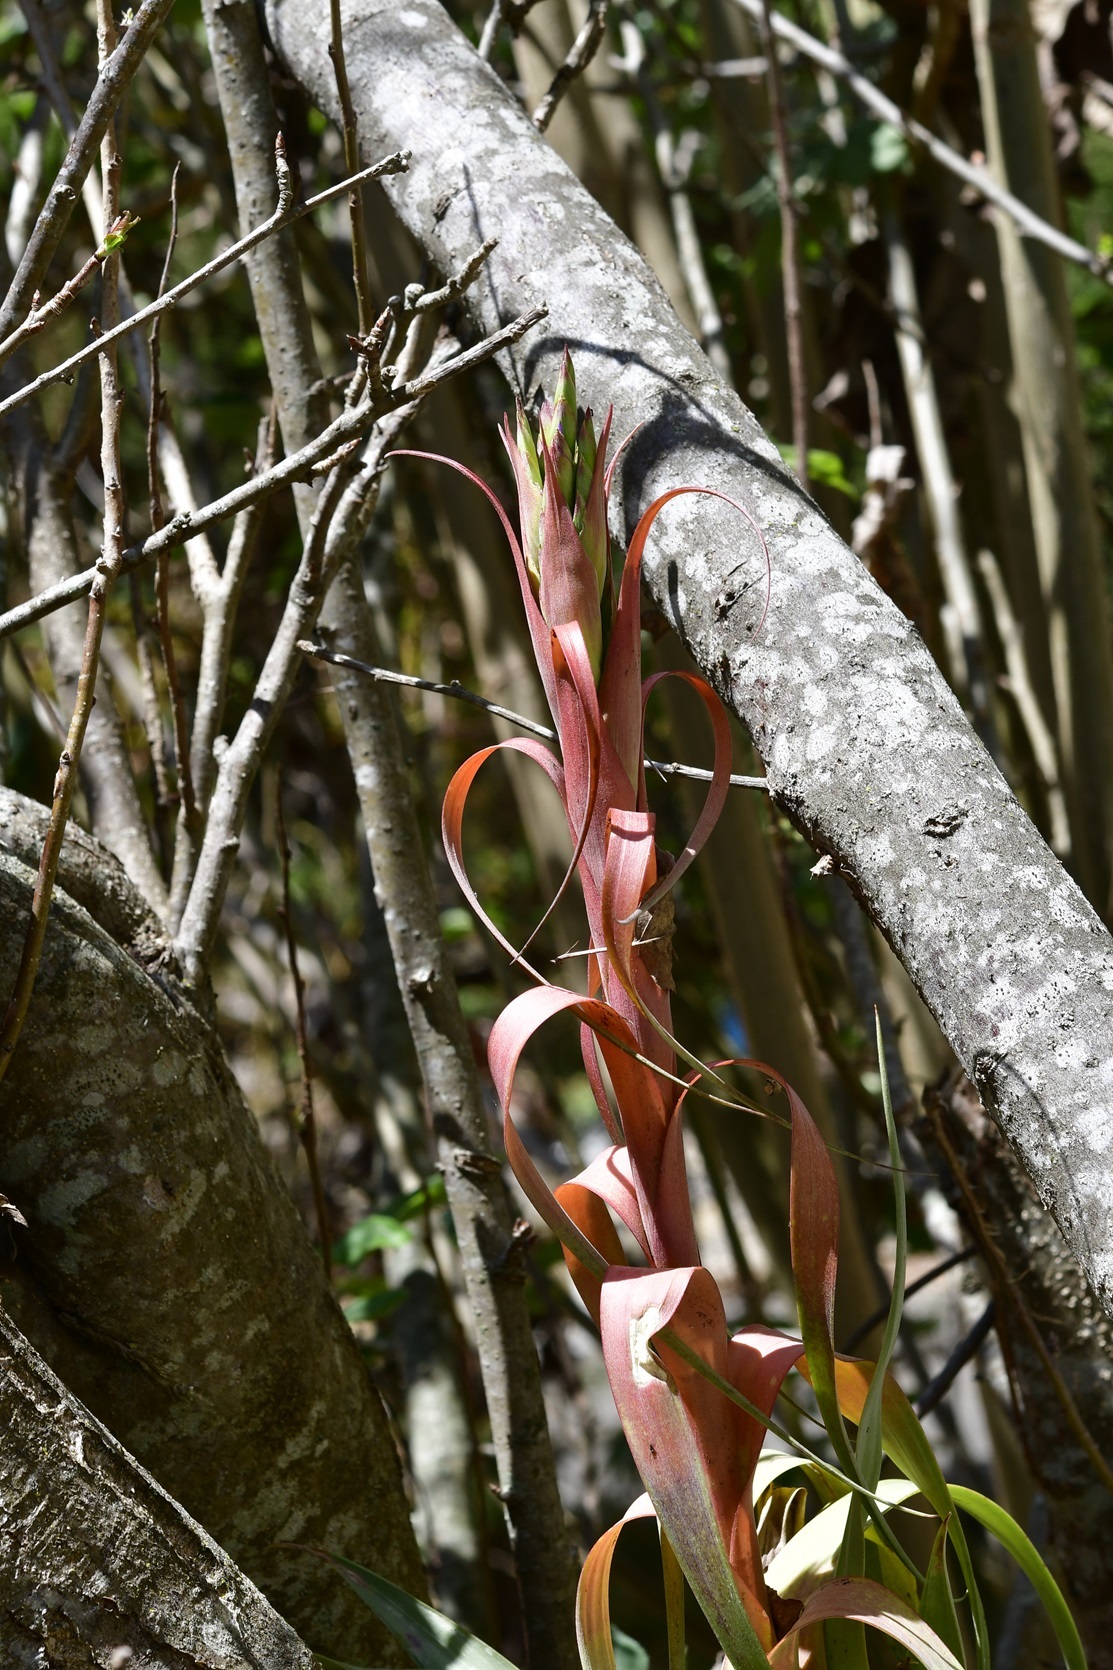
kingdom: Plantae
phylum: Tracheophyta
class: Liliopsida
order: Poales
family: Bromeliaceae
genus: Tillandsia
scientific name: Tillandsia belloensis
